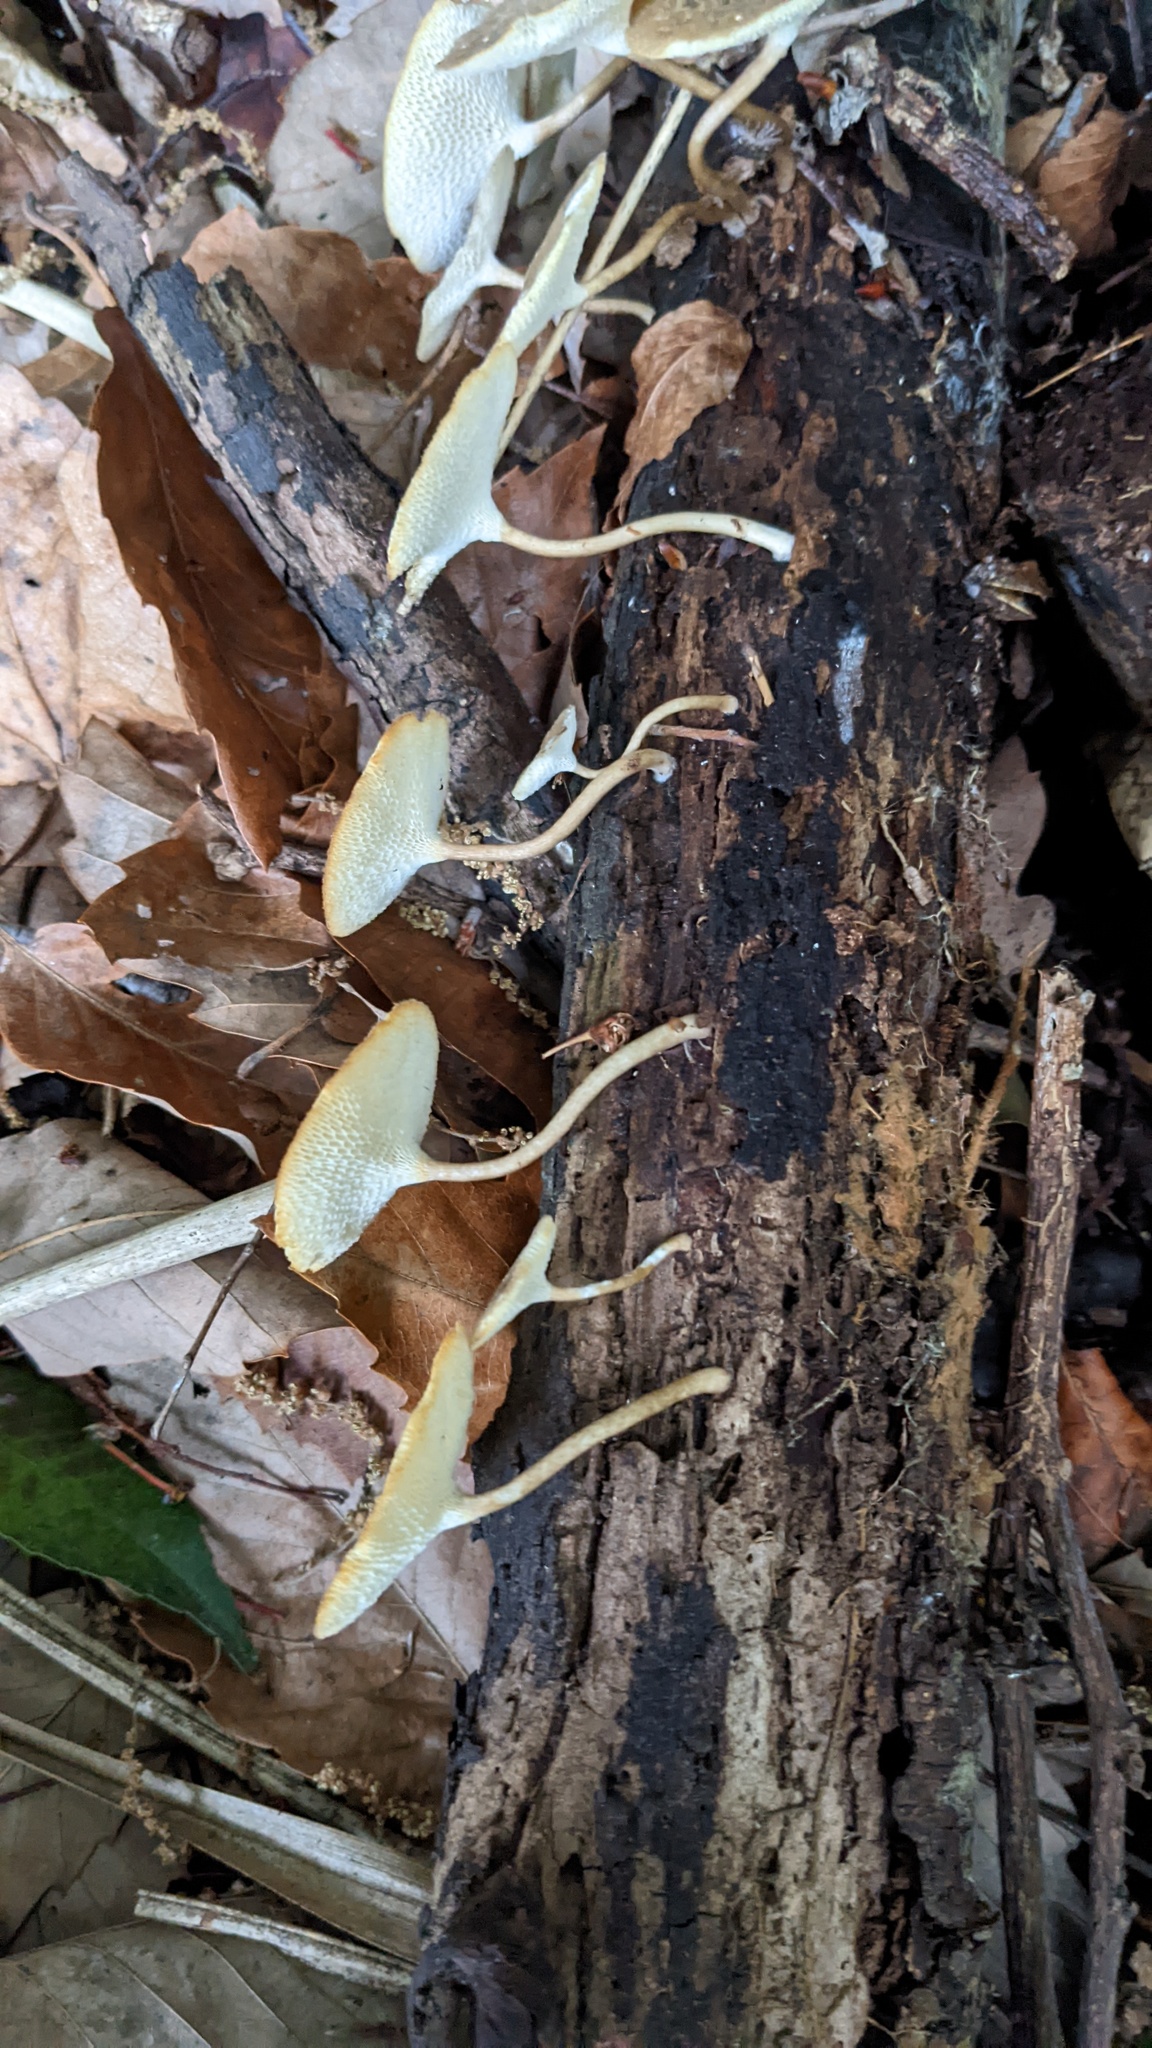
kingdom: Fungi
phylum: Basidiomycota
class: Agaricomycetes
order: Polyporales
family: Polyporaceae
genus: Lentinus
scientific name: Lentinus arcularius
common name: Spring polypore
